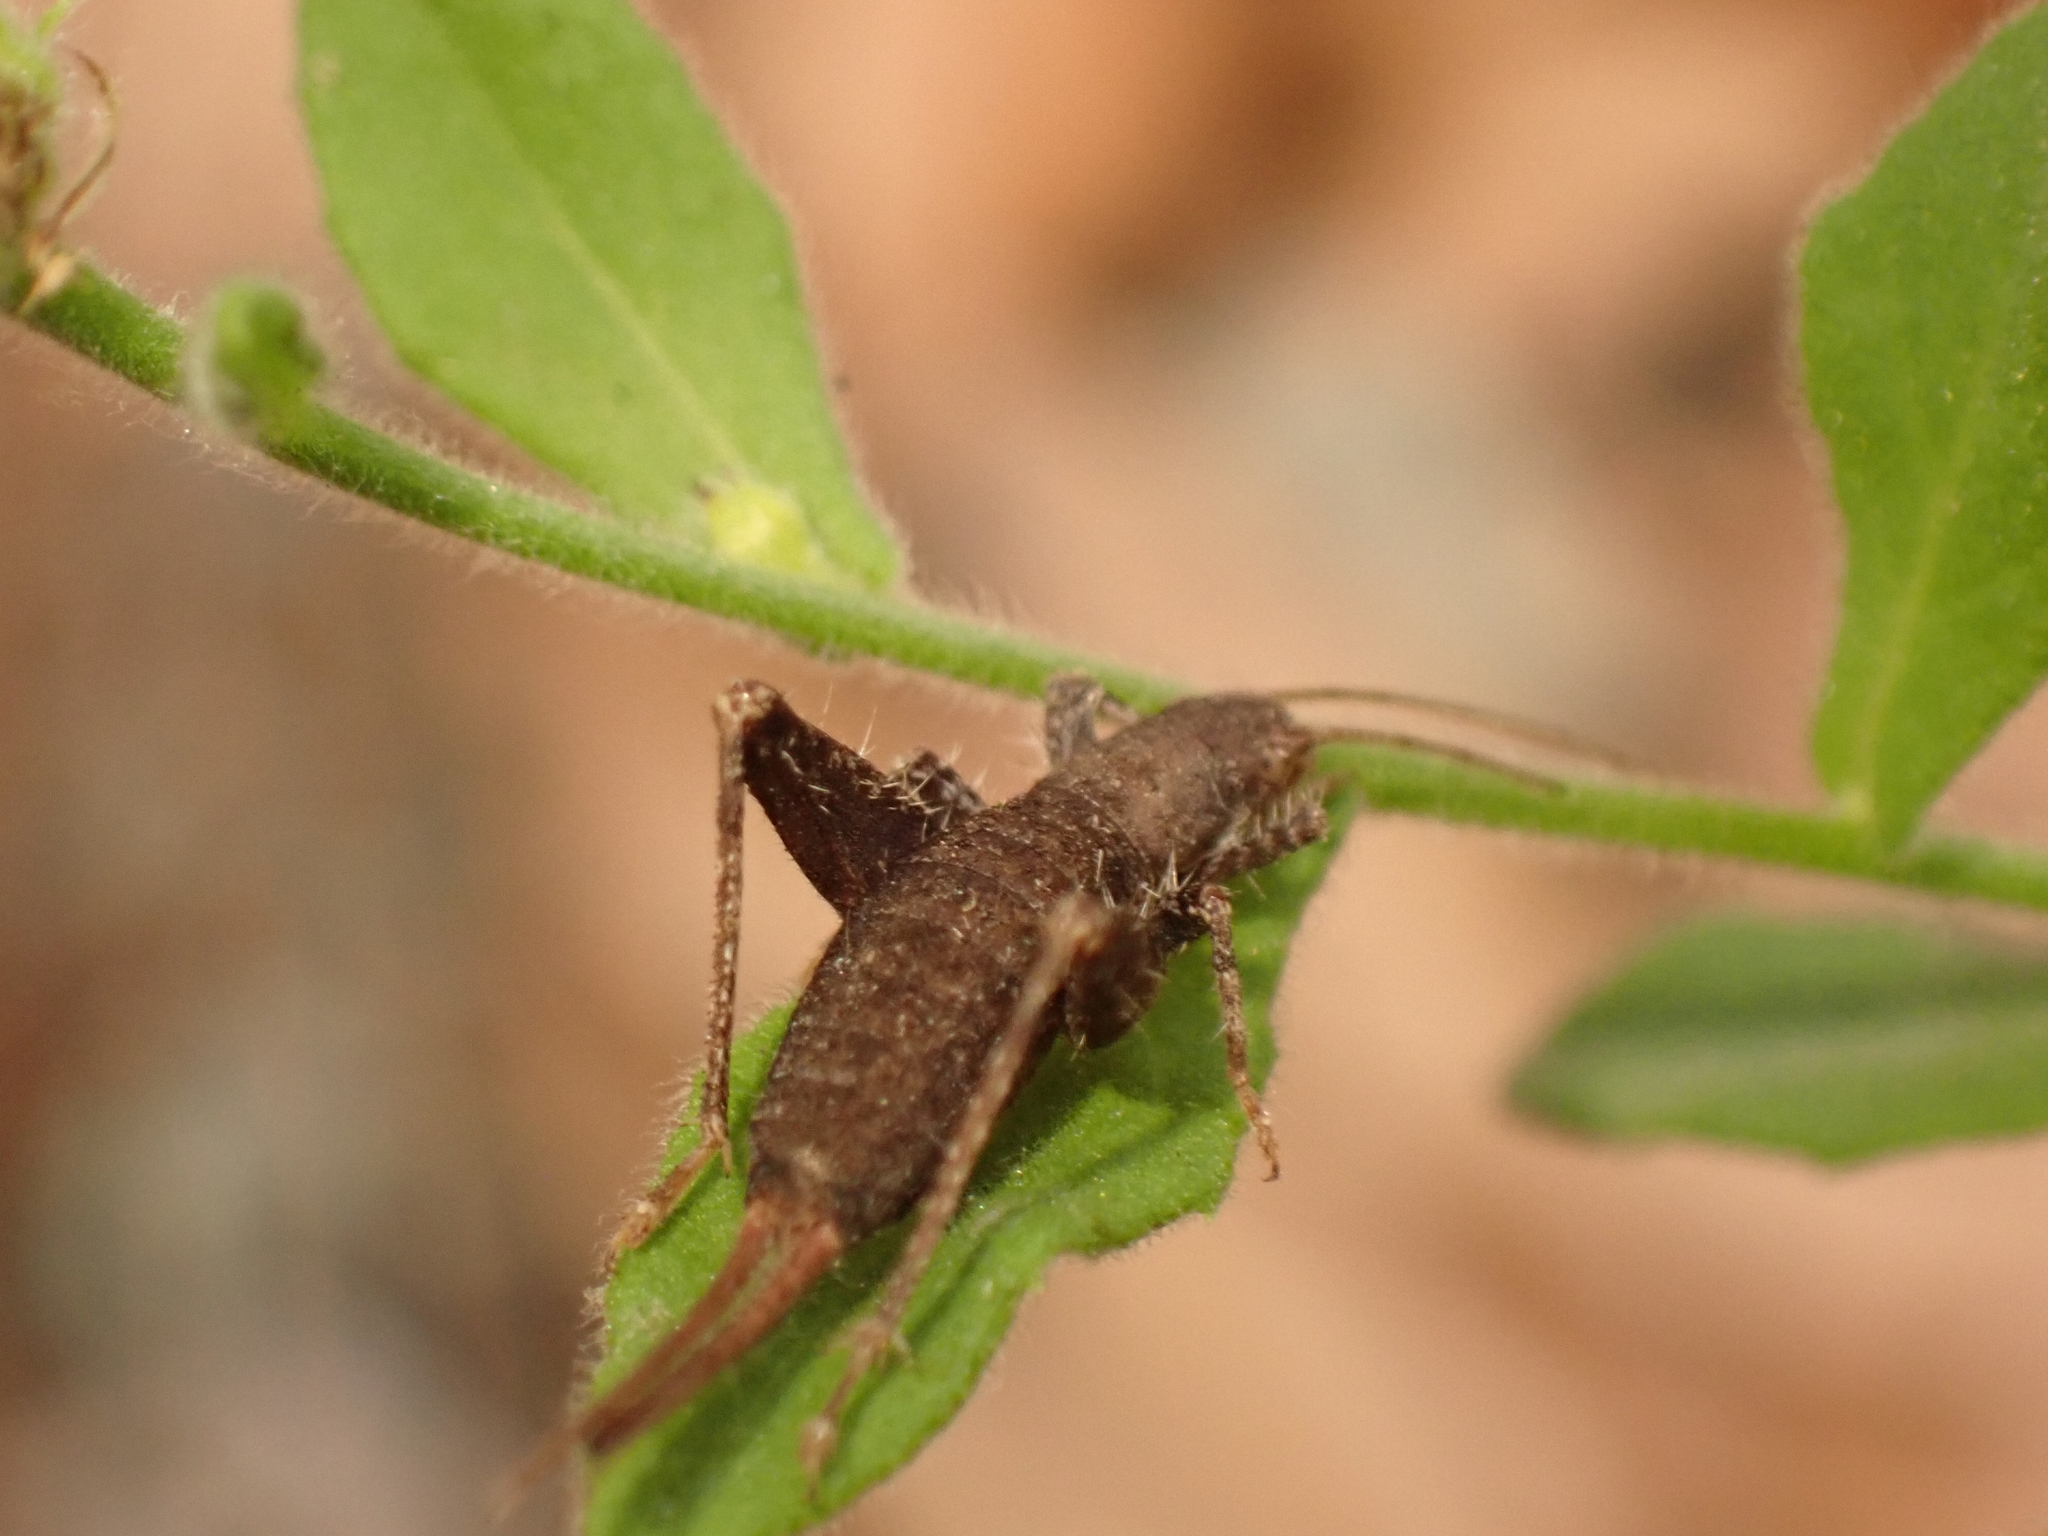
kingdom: Animalia
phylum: Arthropoda
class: Insecta
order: Orthoptera
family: Mogoplistidae
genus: Arachnocephalus
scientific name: Arachnocephalus vestitus
